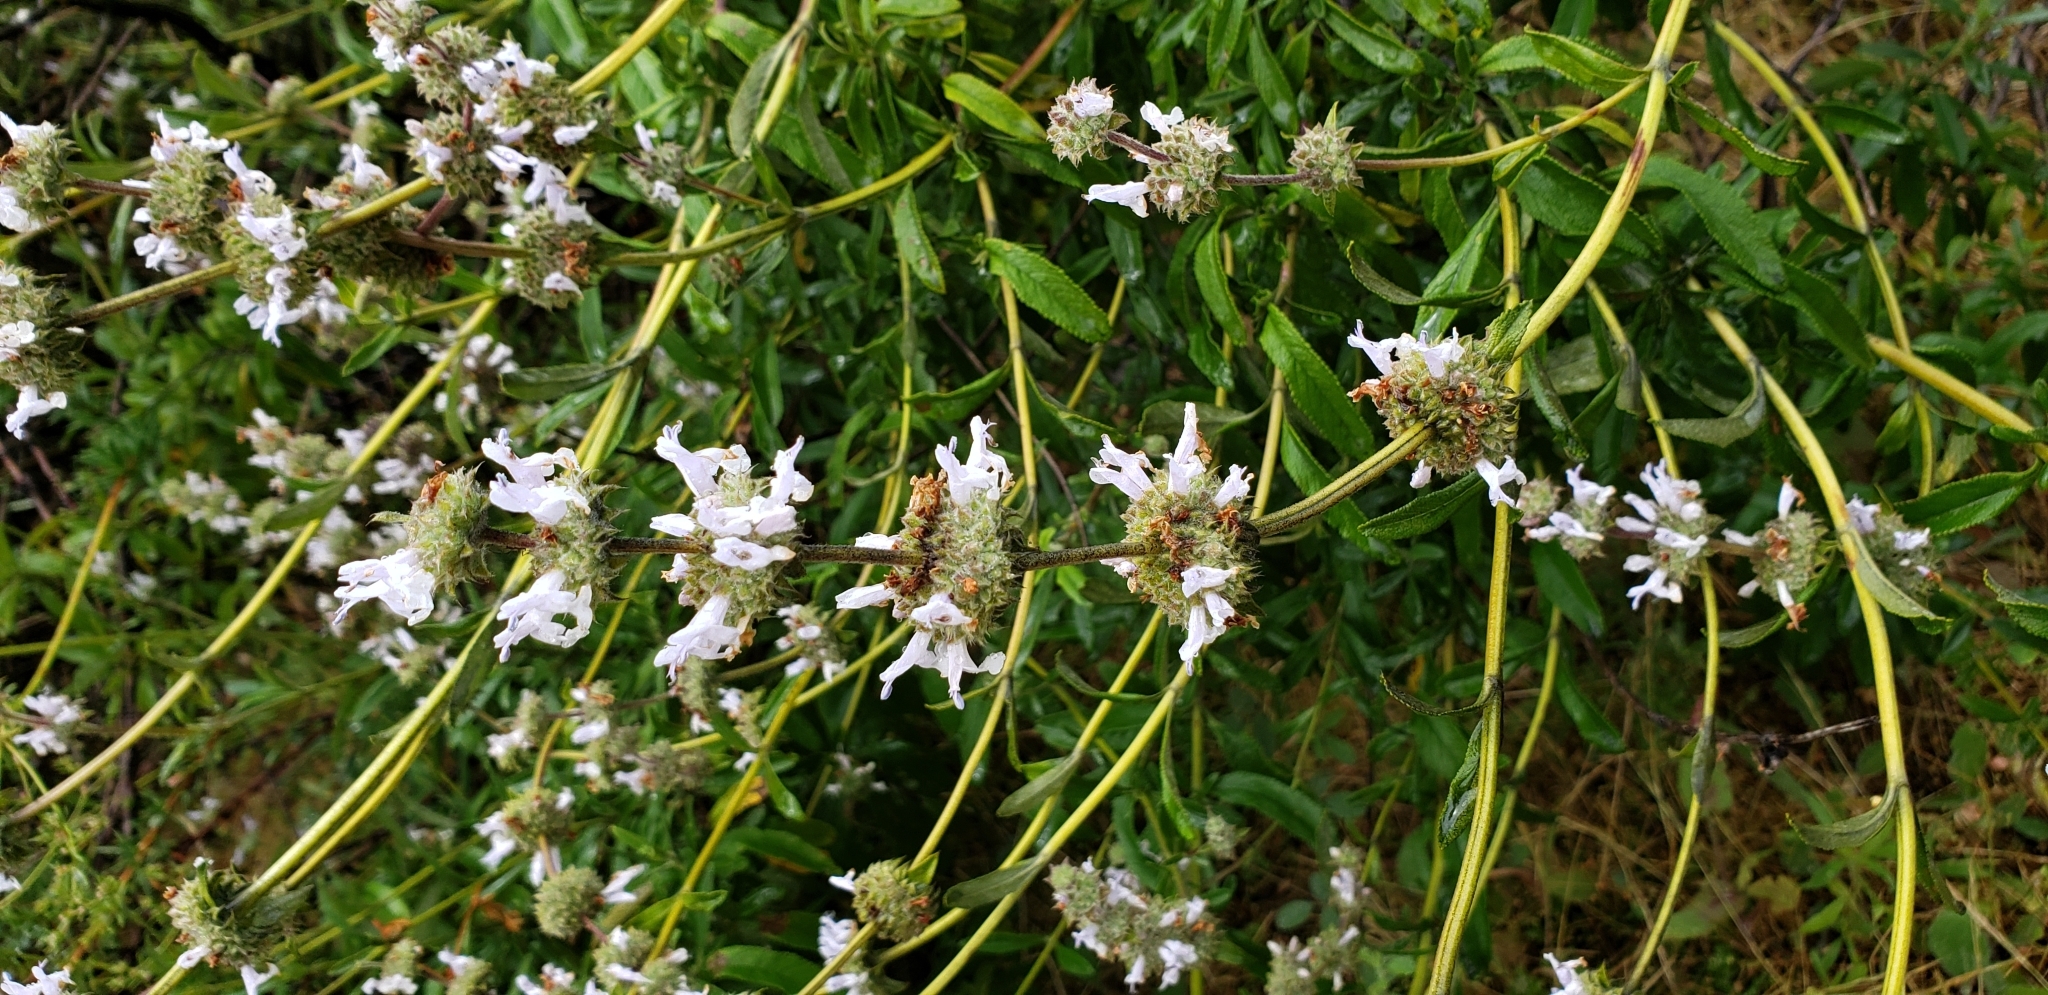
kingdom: Plantae
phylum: Tracheophyta
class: Magnoliopsida
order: Lamiales
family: Lamiaceae
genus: Salvia
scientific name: Salvia mellifera
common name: Black sage
